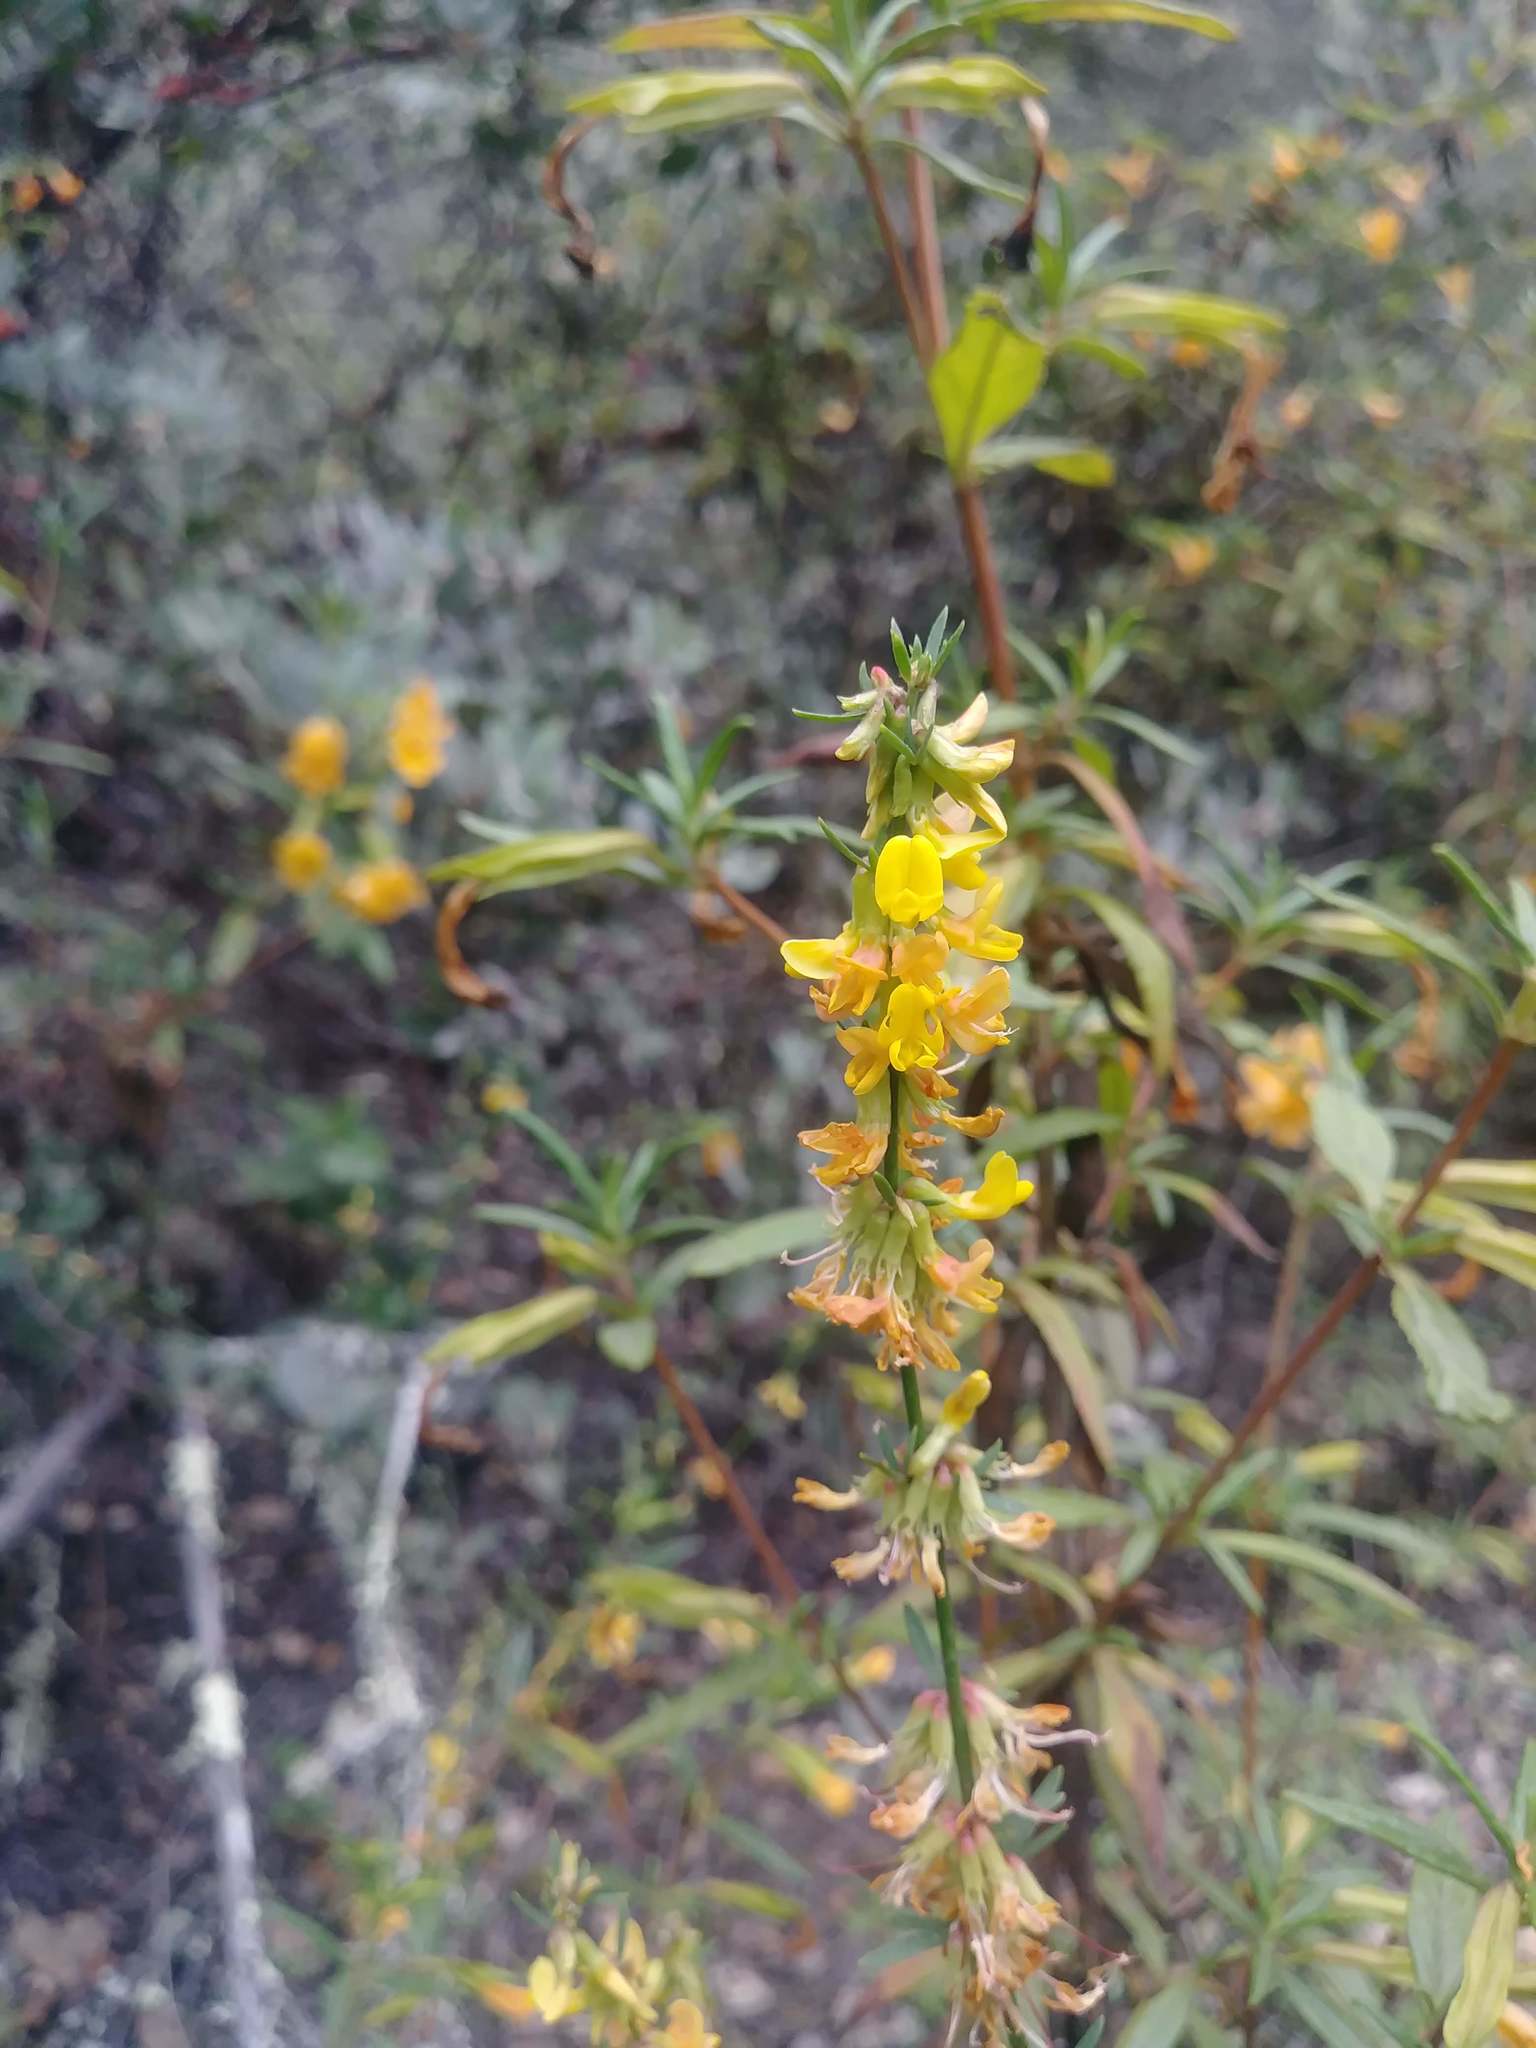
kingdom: Plantae
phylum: Tracheophyta
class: Magnoliopsida
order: Fabales
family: Fabaceae
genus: Acmispon
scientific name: Acmispon glaber
